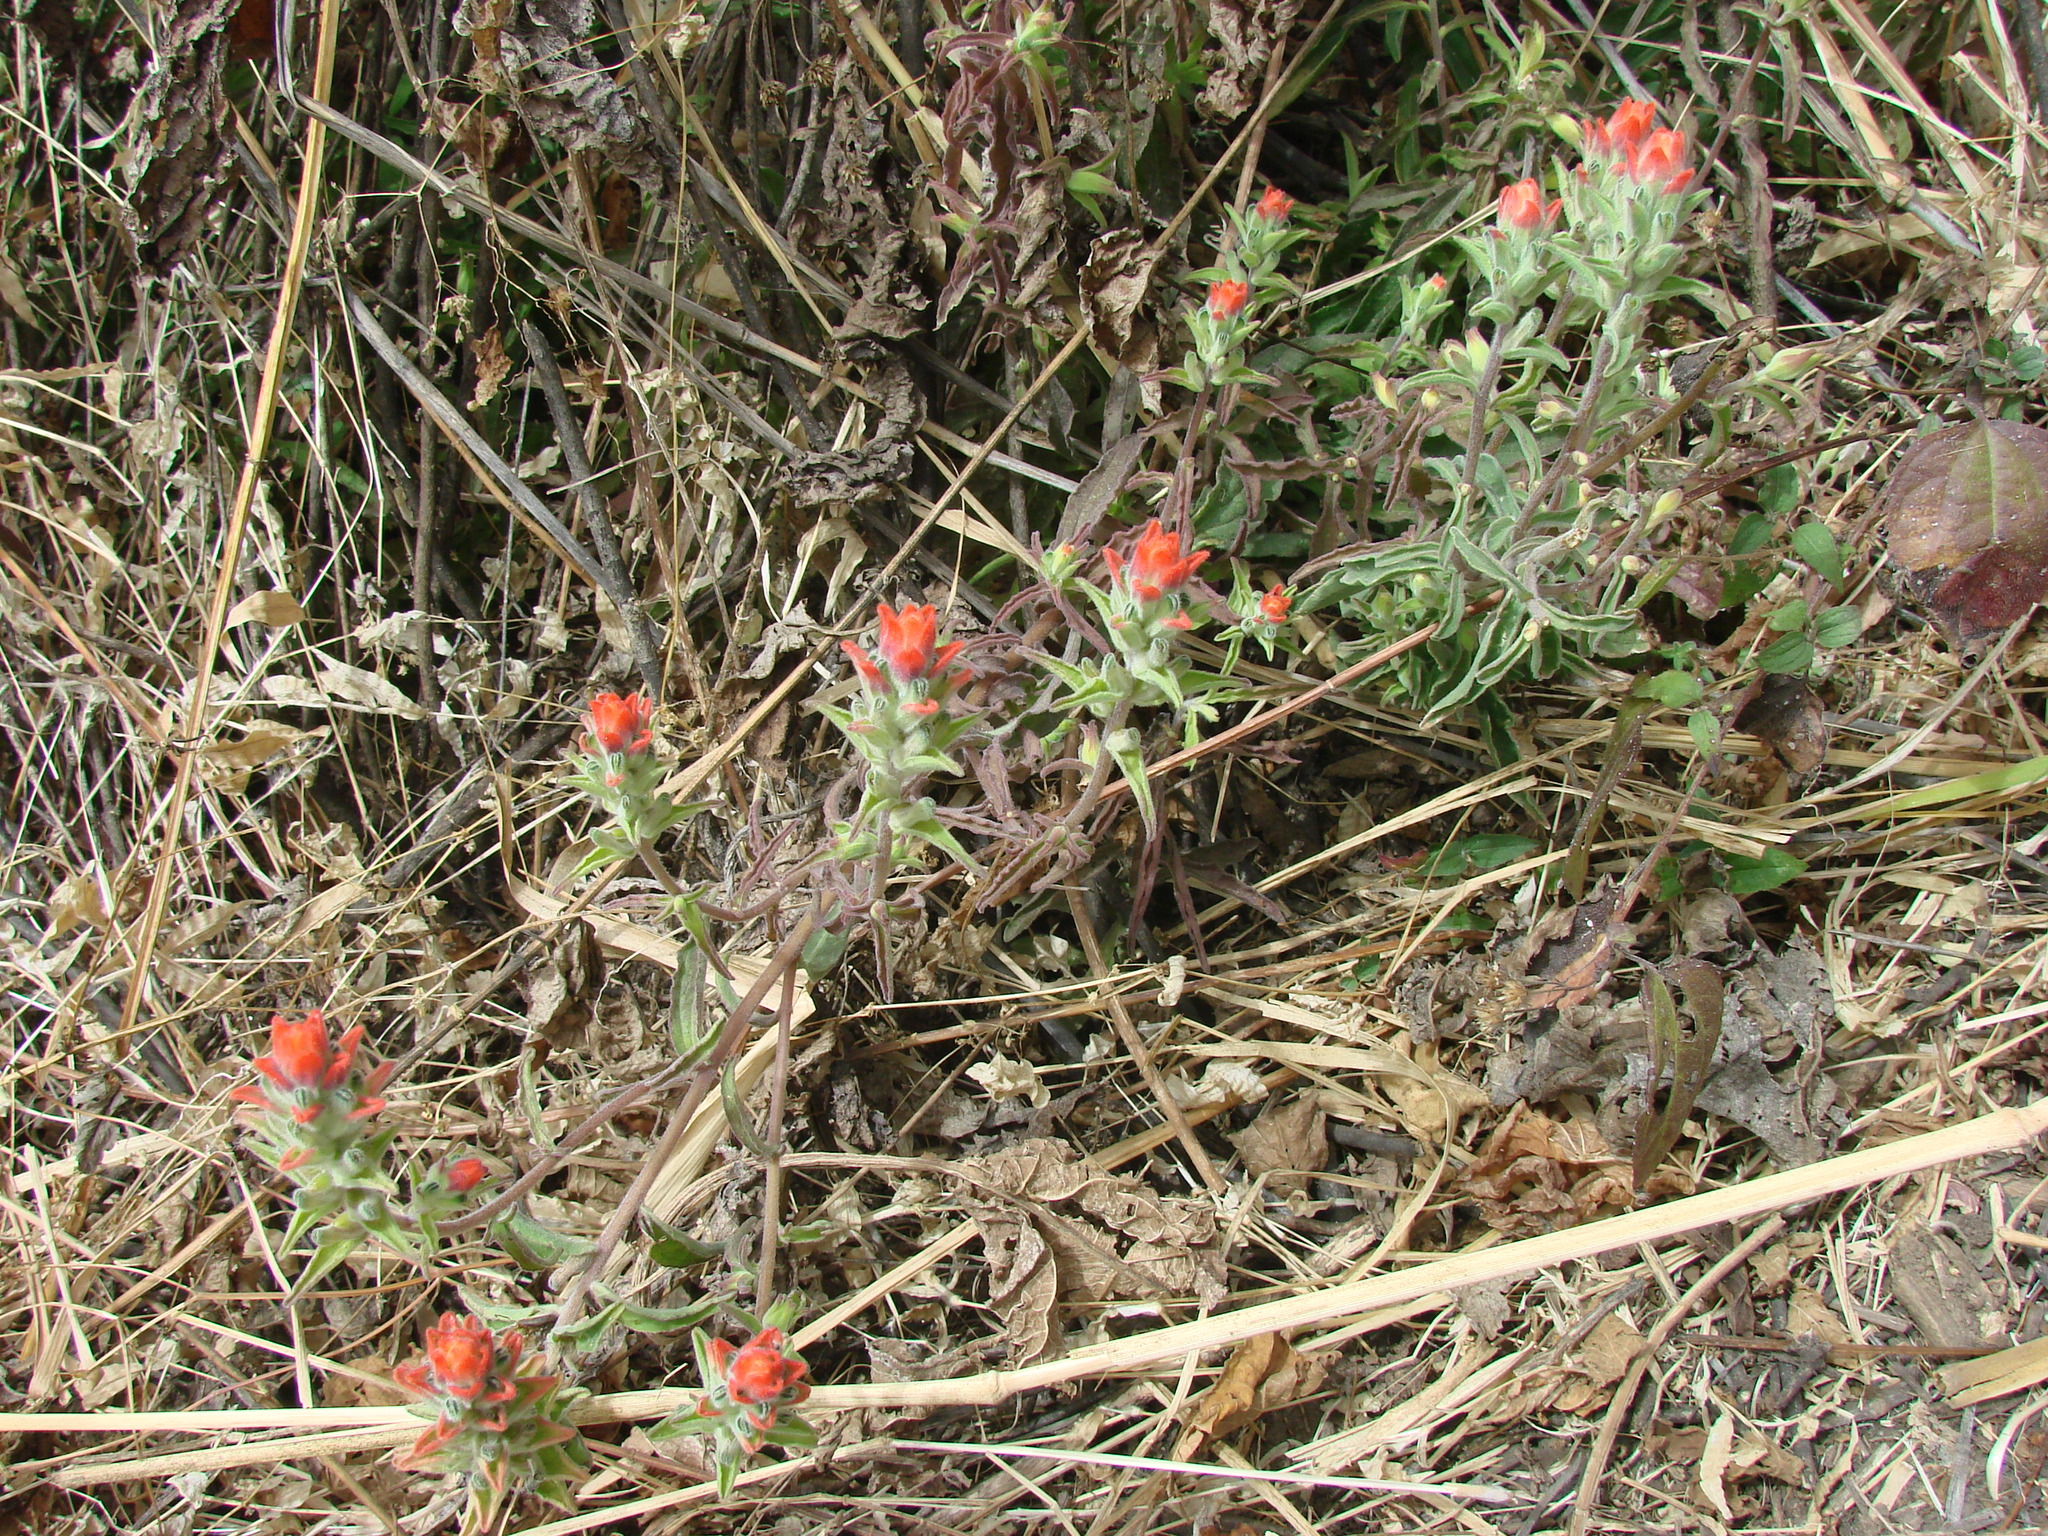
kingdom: Plantae
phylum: Tracheophyta
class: Magnoliopsida
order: Lamiales
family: Orobanchaceae
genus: Castilleja
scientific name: Castilleja arvensis
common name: Indian paintbrush
